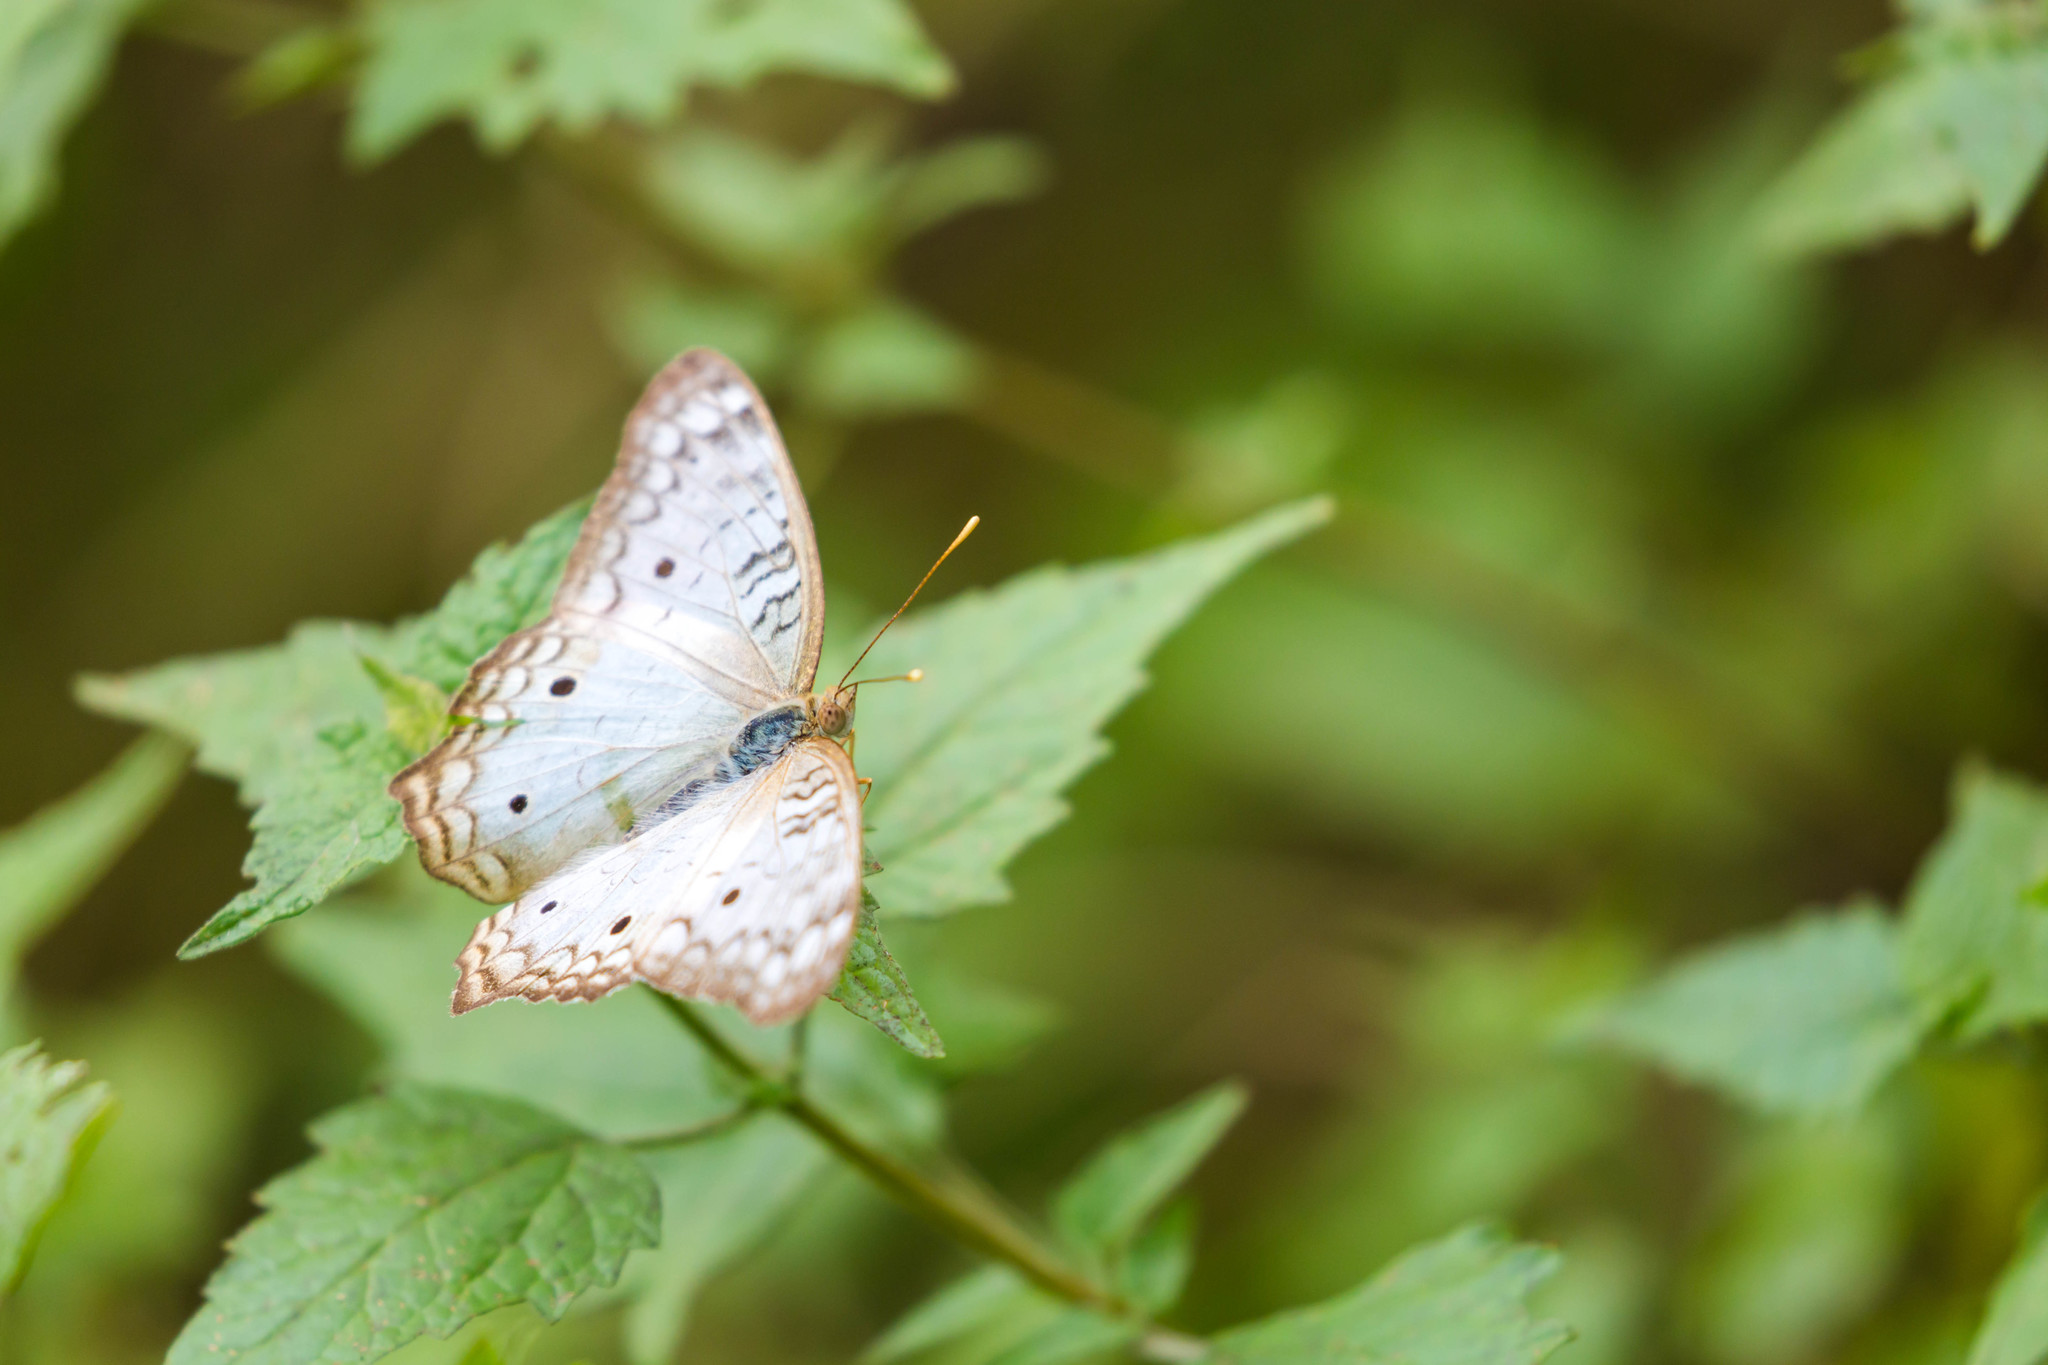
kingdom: Animalia
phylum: Arthropoda
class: Insecta
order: Lepidoptera
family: Nymphalidae
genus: Anartia
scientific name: Anartia jatrophae
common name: White peacock
